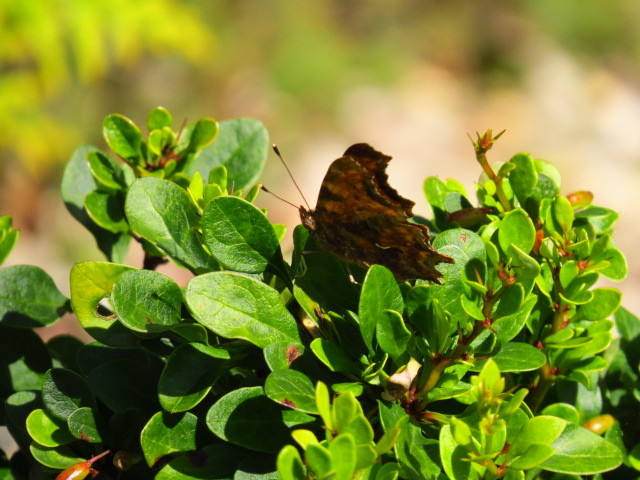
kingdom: Animalia
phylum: Arthropoda
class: Insecta
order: Lepidoptera
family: Nymphalidae
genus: Polygonia
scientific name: Polygonia c-album
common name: Comma
